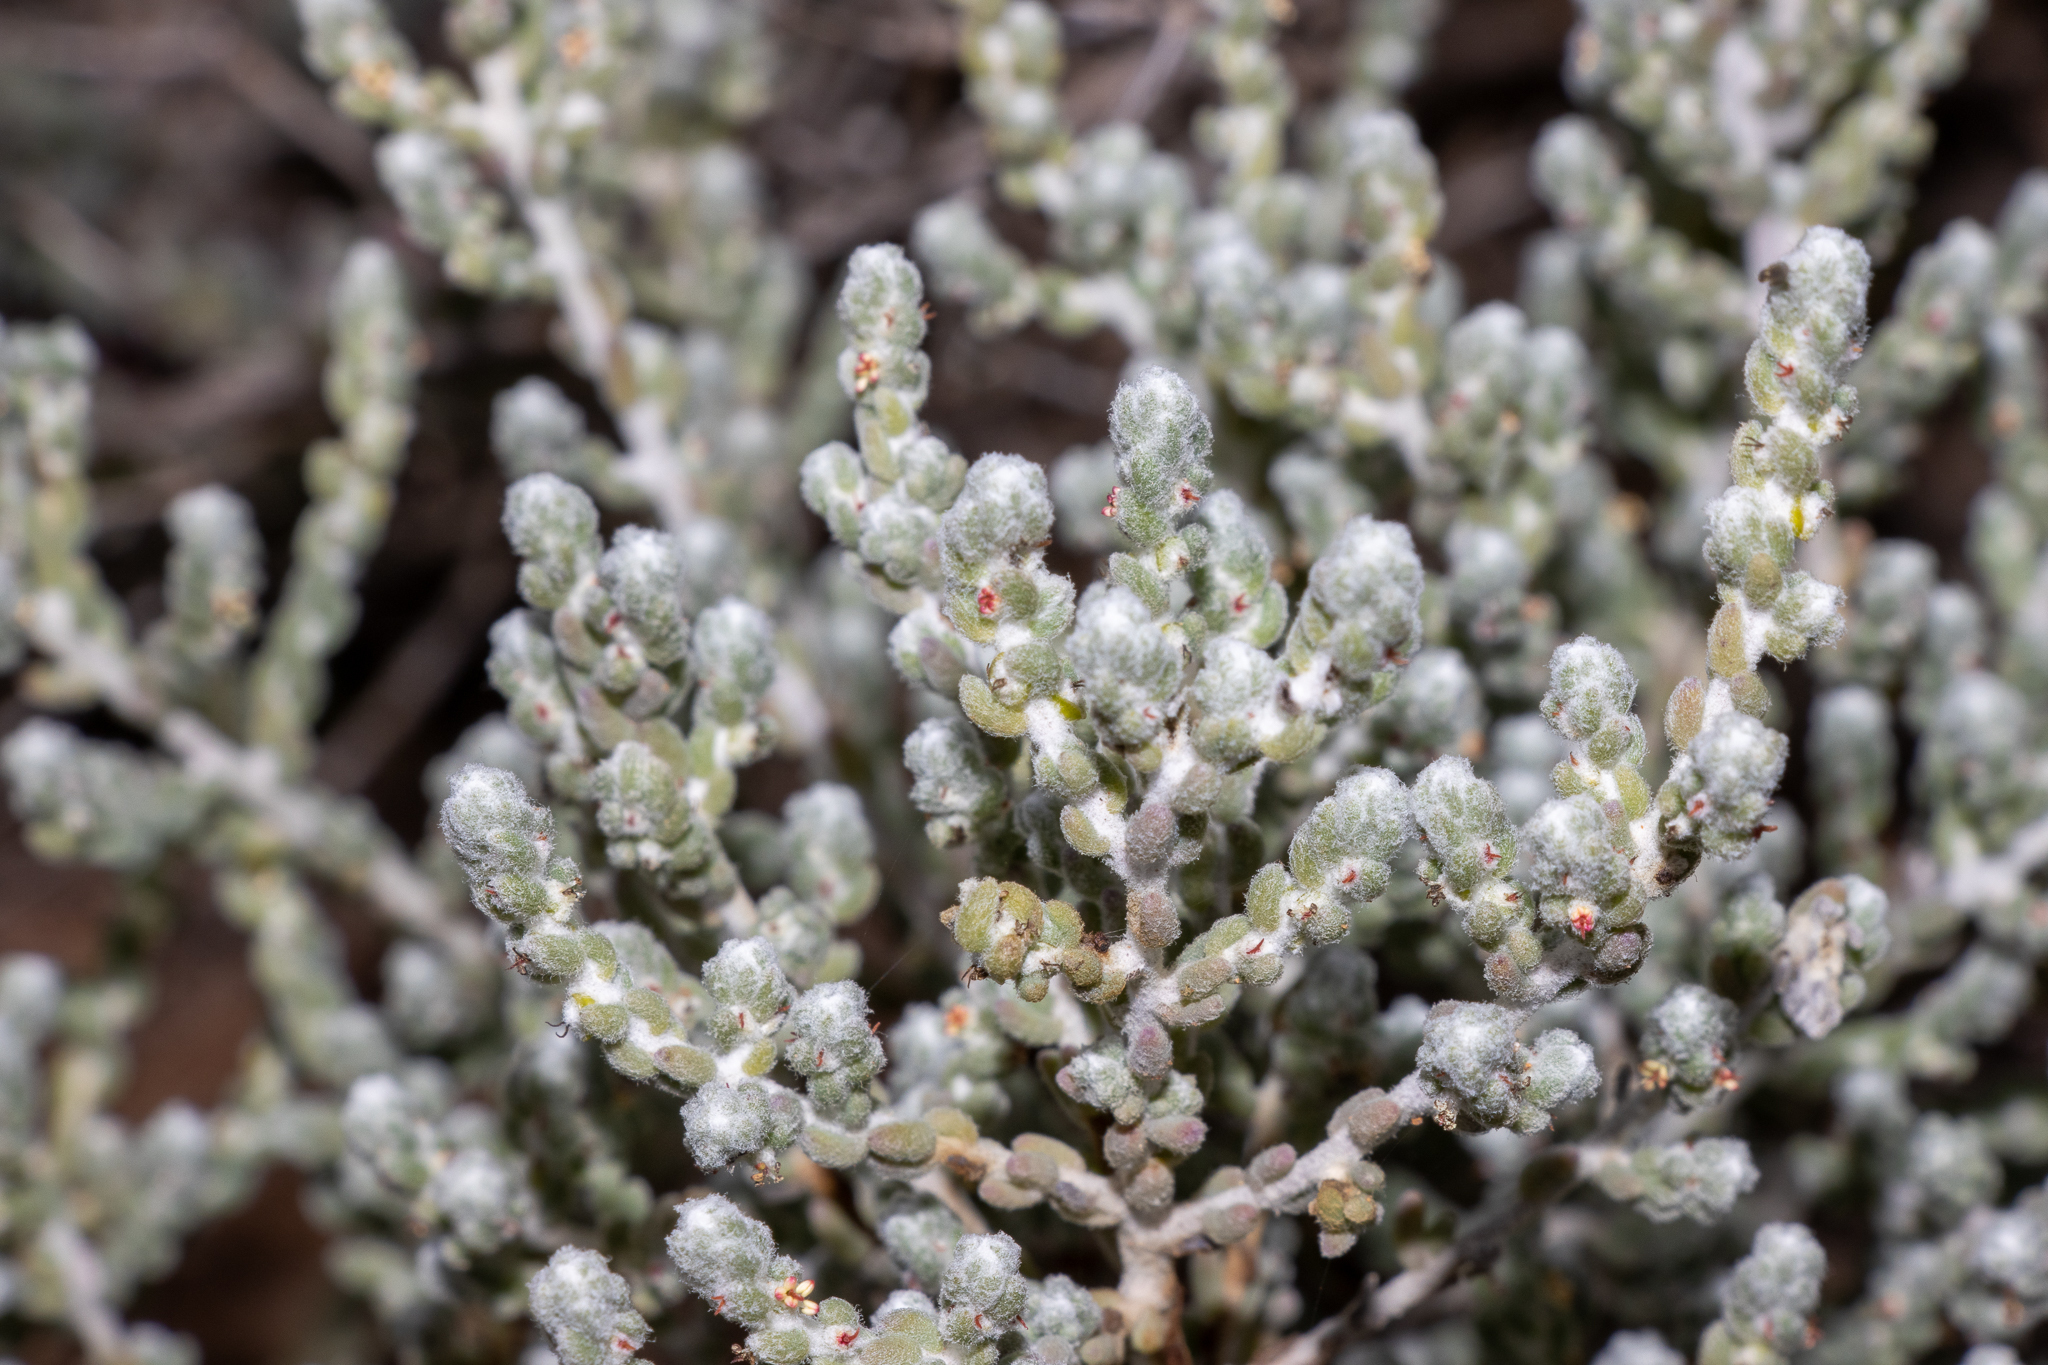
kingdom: Plantae
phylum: Tracheophyta
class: Magnoliopsida
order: Caryophyllales
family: Amaranthaceae
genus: Maireana
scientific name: Maireana radiata
